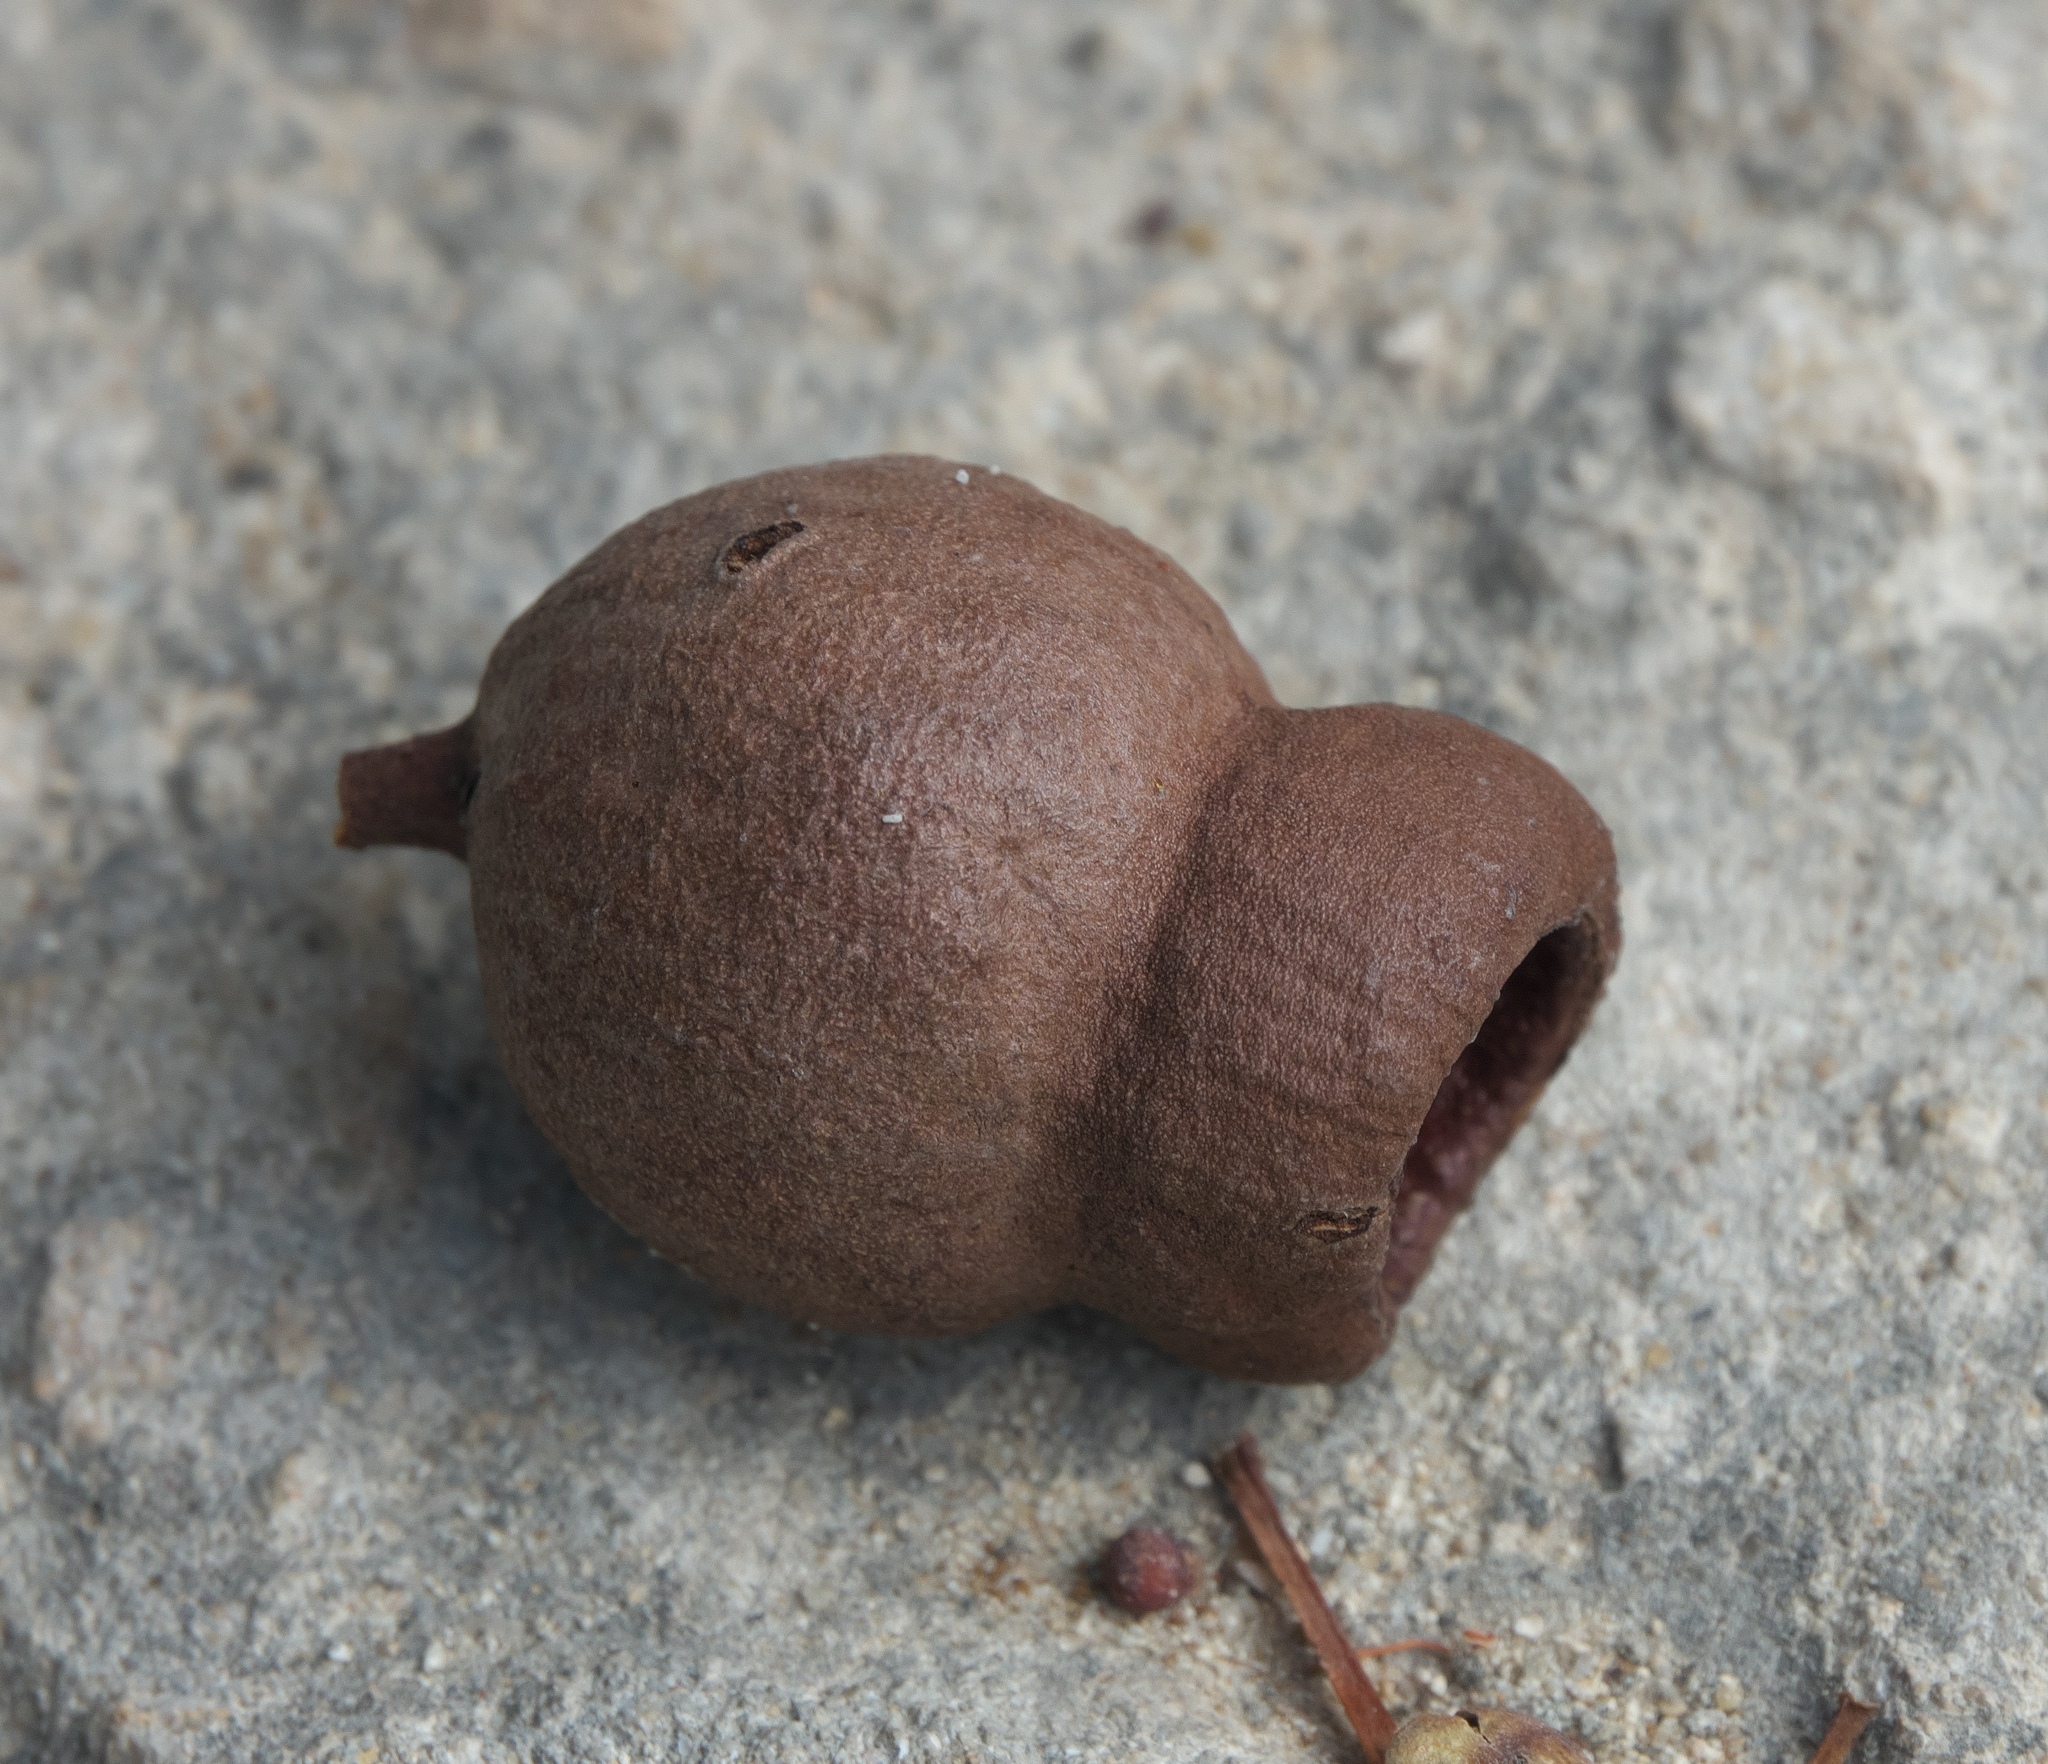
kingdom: Plantae
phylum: Tracheophyta
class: Magnoliopsida
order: Myrtales
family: Myrtaceae
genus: Corymbia
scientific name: Corymbia calophylla
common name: Marri
